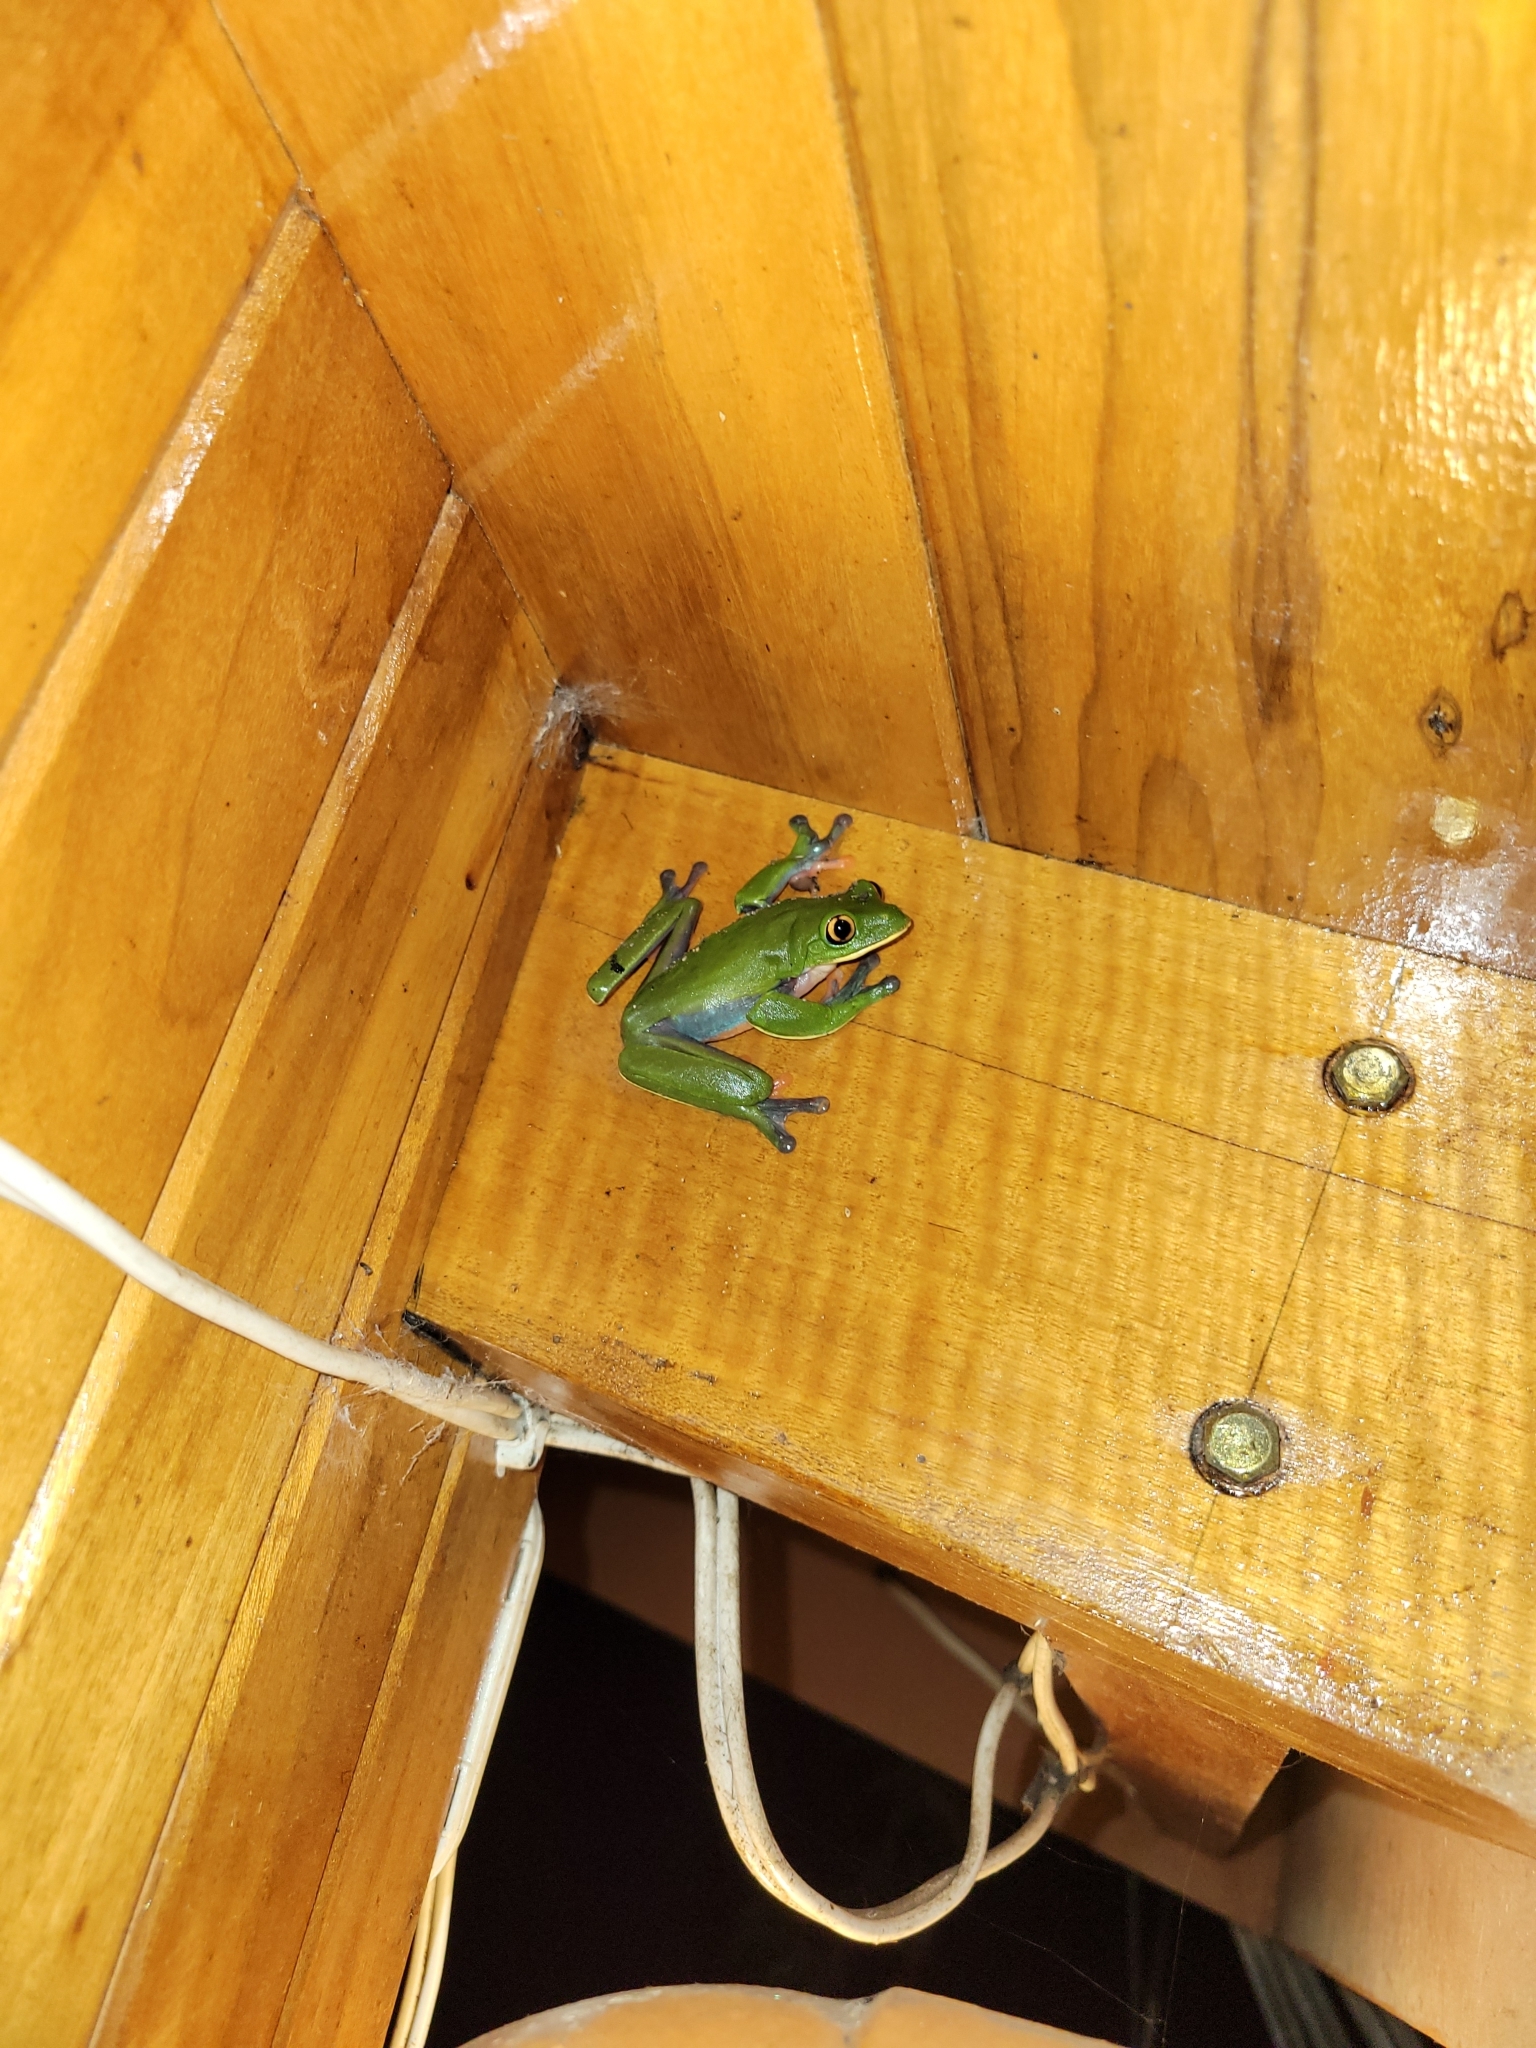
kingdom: Animalia
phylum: Chordata
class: Amphibia
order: Anura
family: Phyllomedusidae
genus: Agalychnis
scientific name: Agalychnis annae
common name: Blue-sided treefrog
